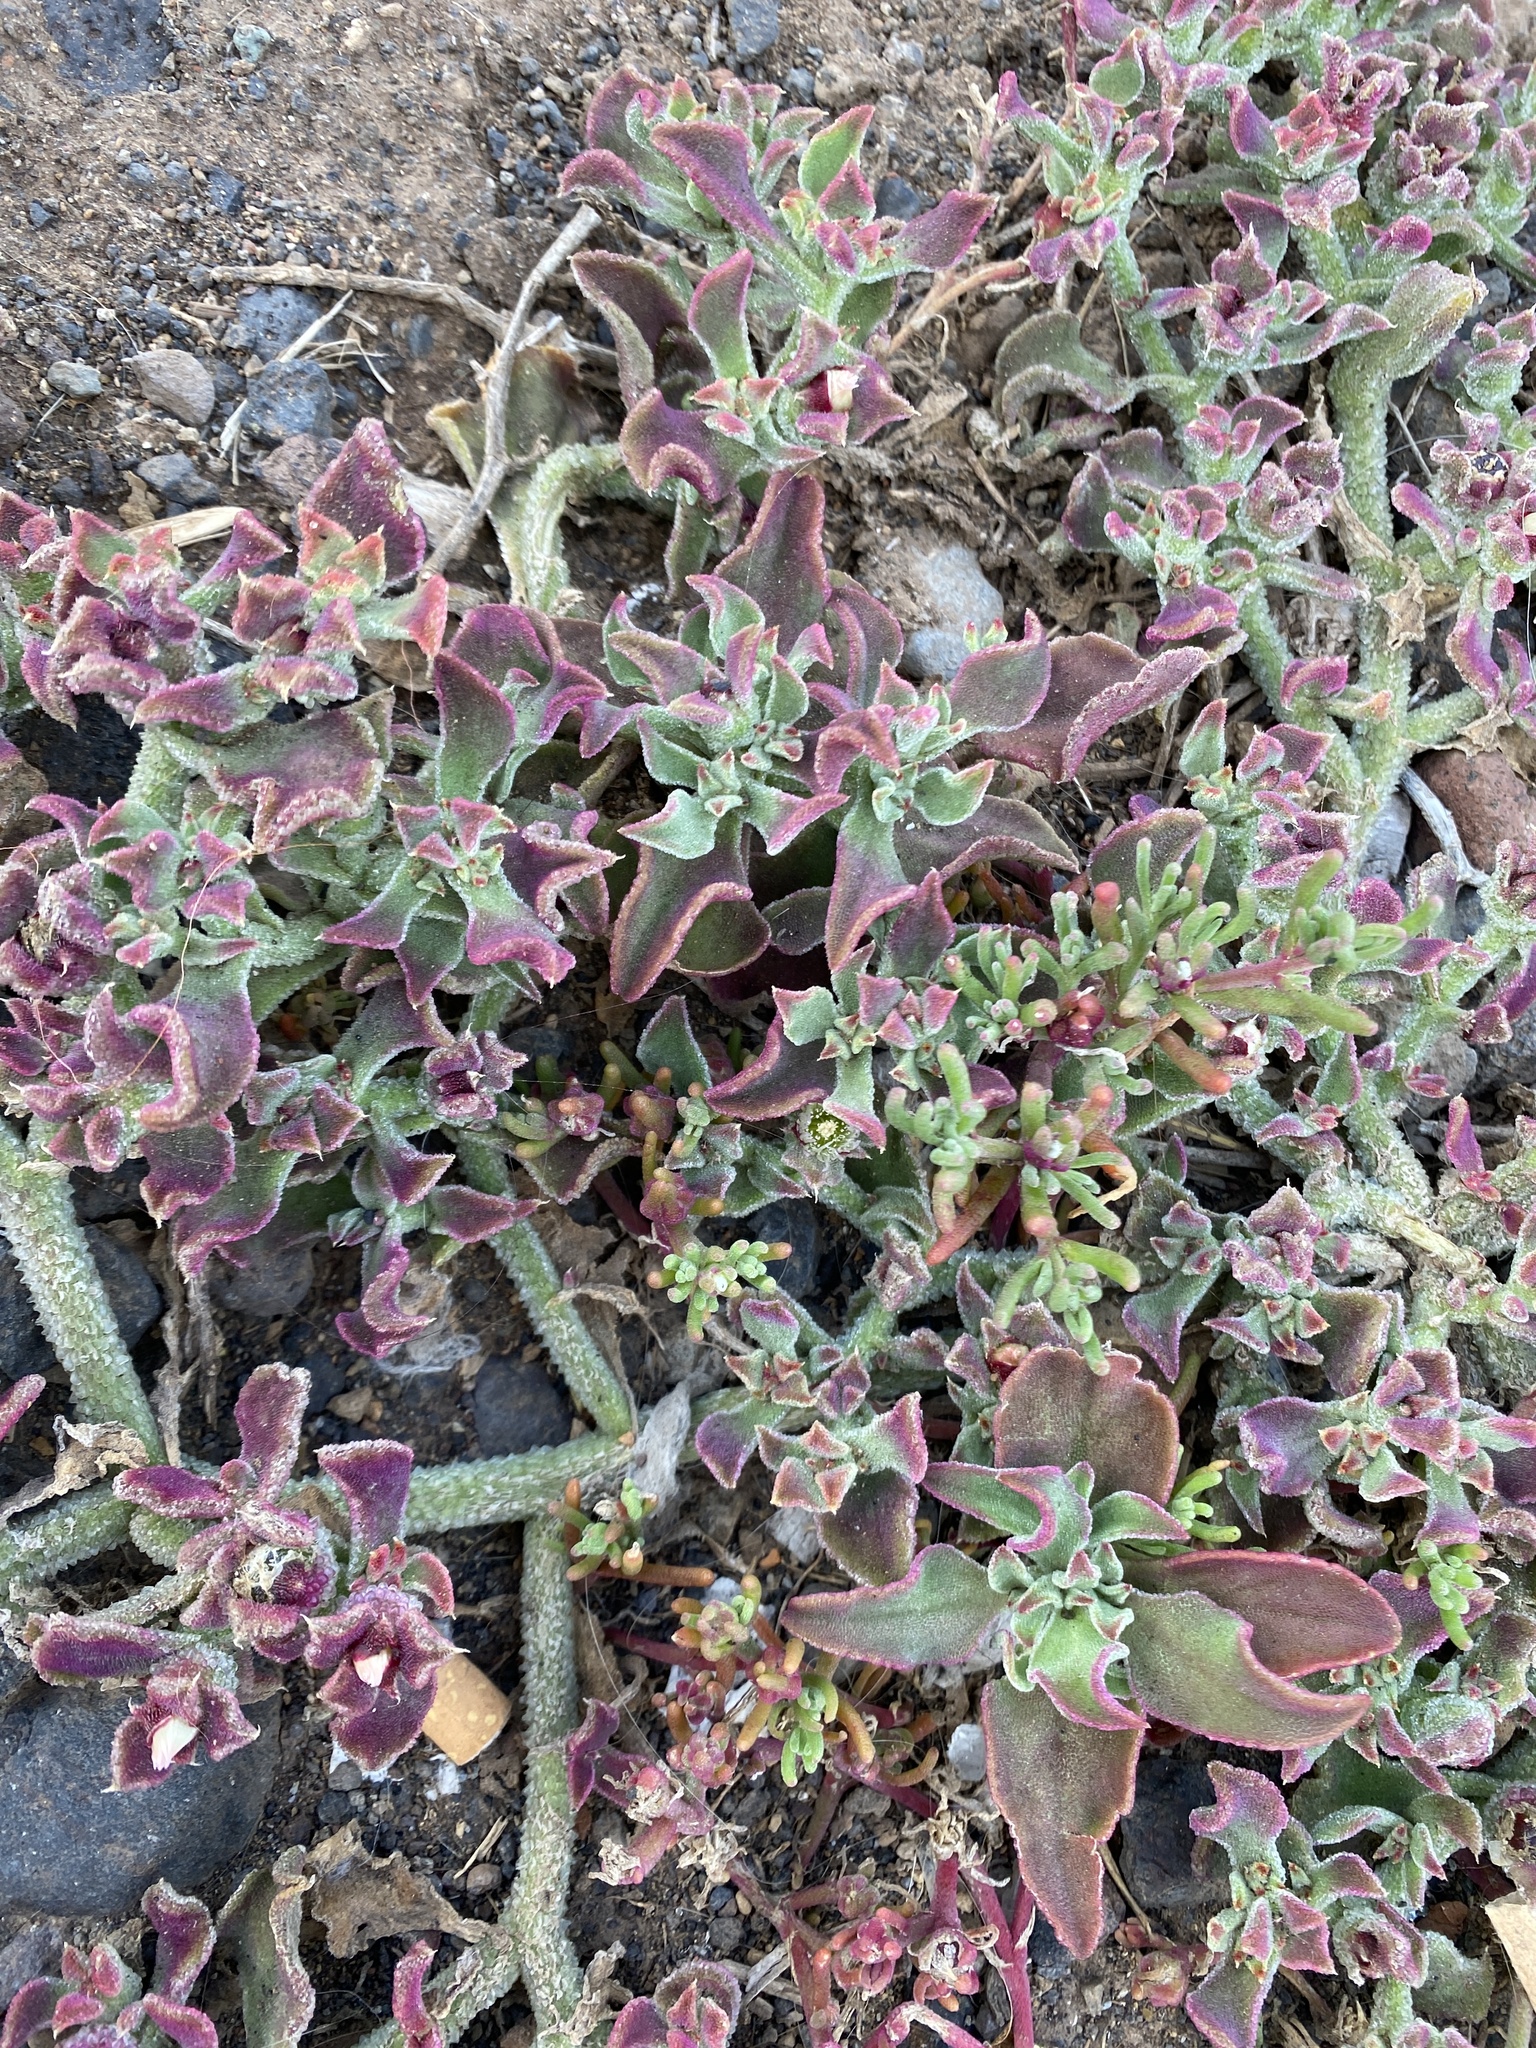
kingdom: Plantae
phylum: Tracheophyta
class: Magnoliopsida
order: Caryophyllales
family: Aizoaceae
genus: Mesembryanthemum
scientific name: Mesembryanthemum crystallinum
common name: Common iceplant
